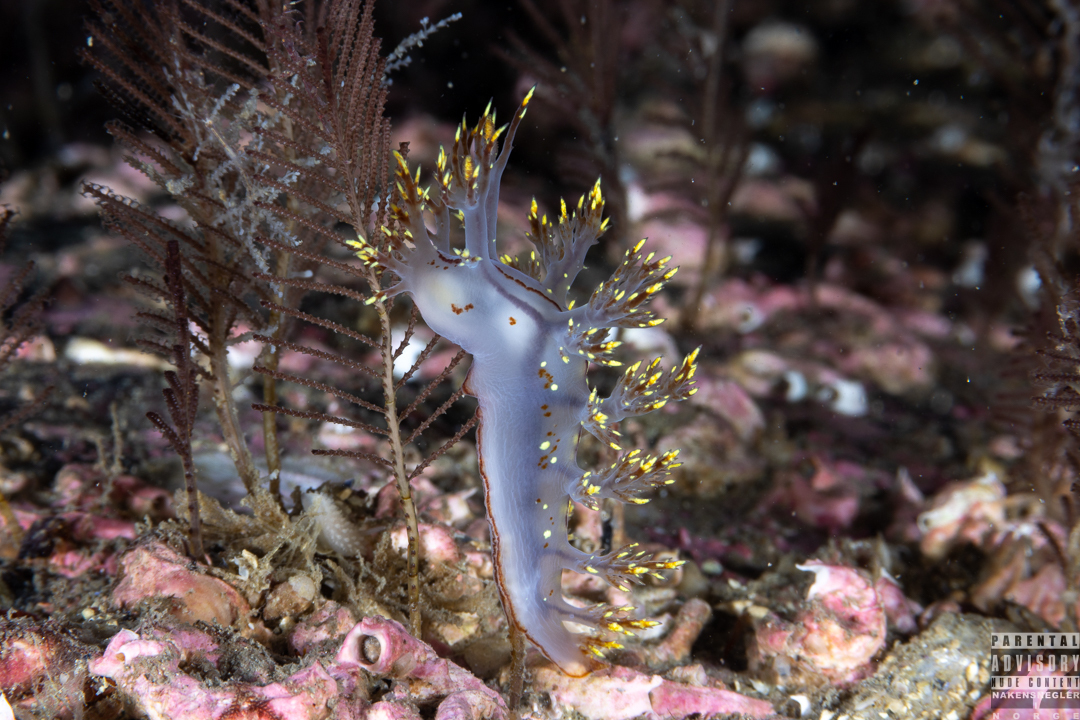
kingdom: Animalia
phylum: Mollusca
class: Gastropoda
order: Nudibranchia
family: Dendronotidae
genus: Dendronotus
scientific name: Dendronotus yrjargul
